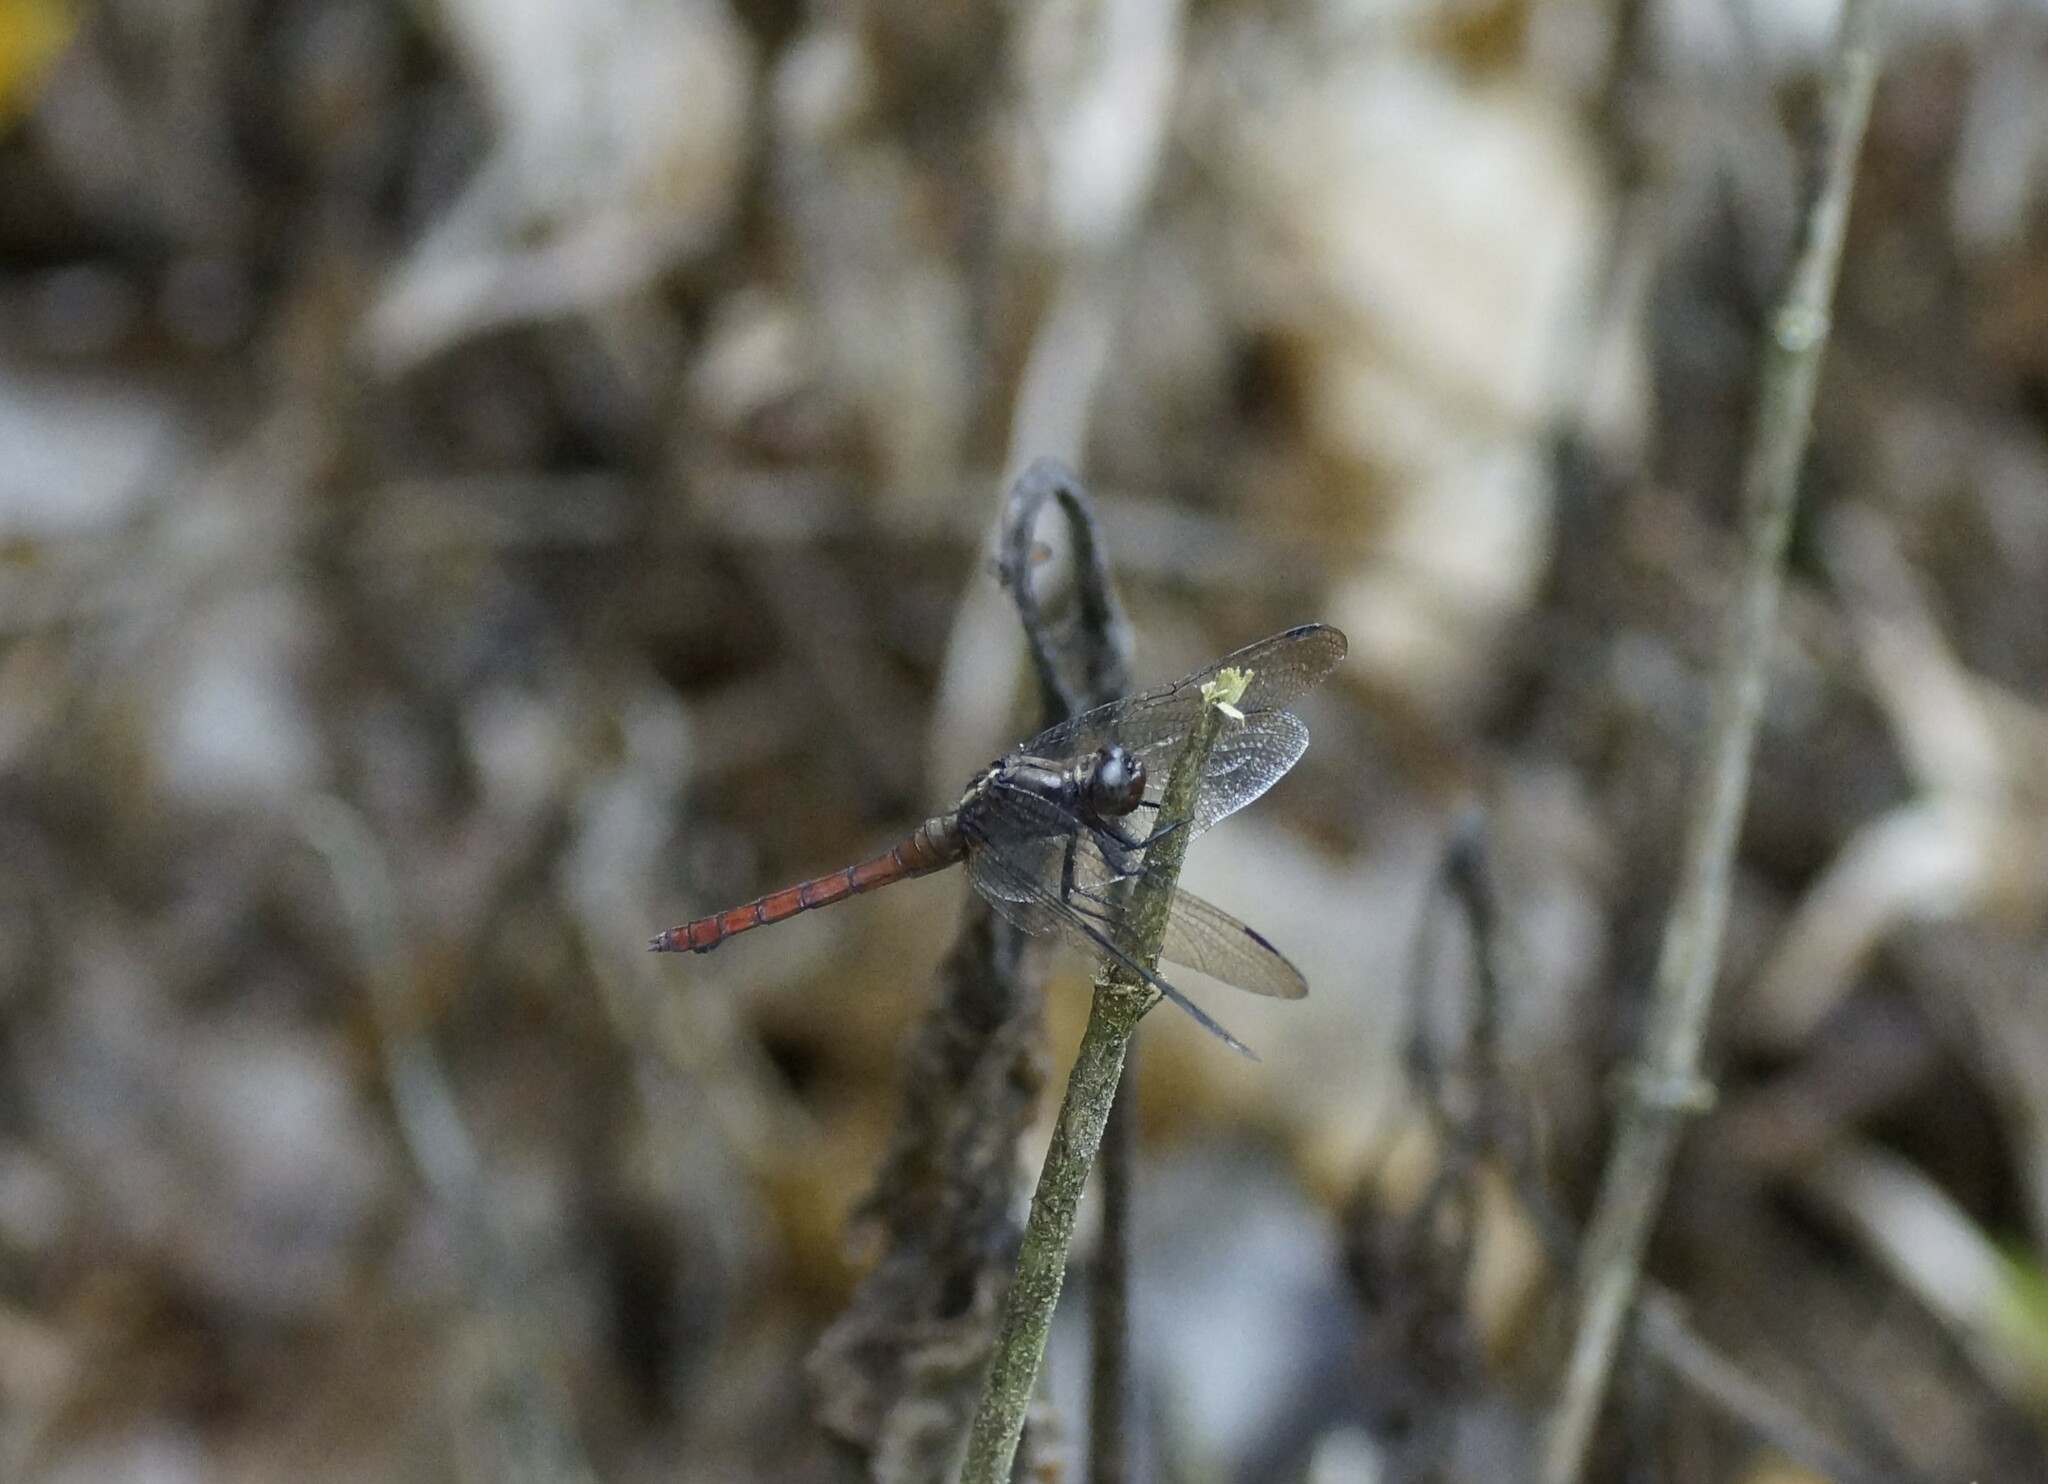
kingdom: Animalia
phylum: Arthropoda
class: Insecta
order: Odonata
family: Libellulidae
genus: Orthetrum
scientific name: Orthetrum villosovittatum
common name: Firery skimmer
